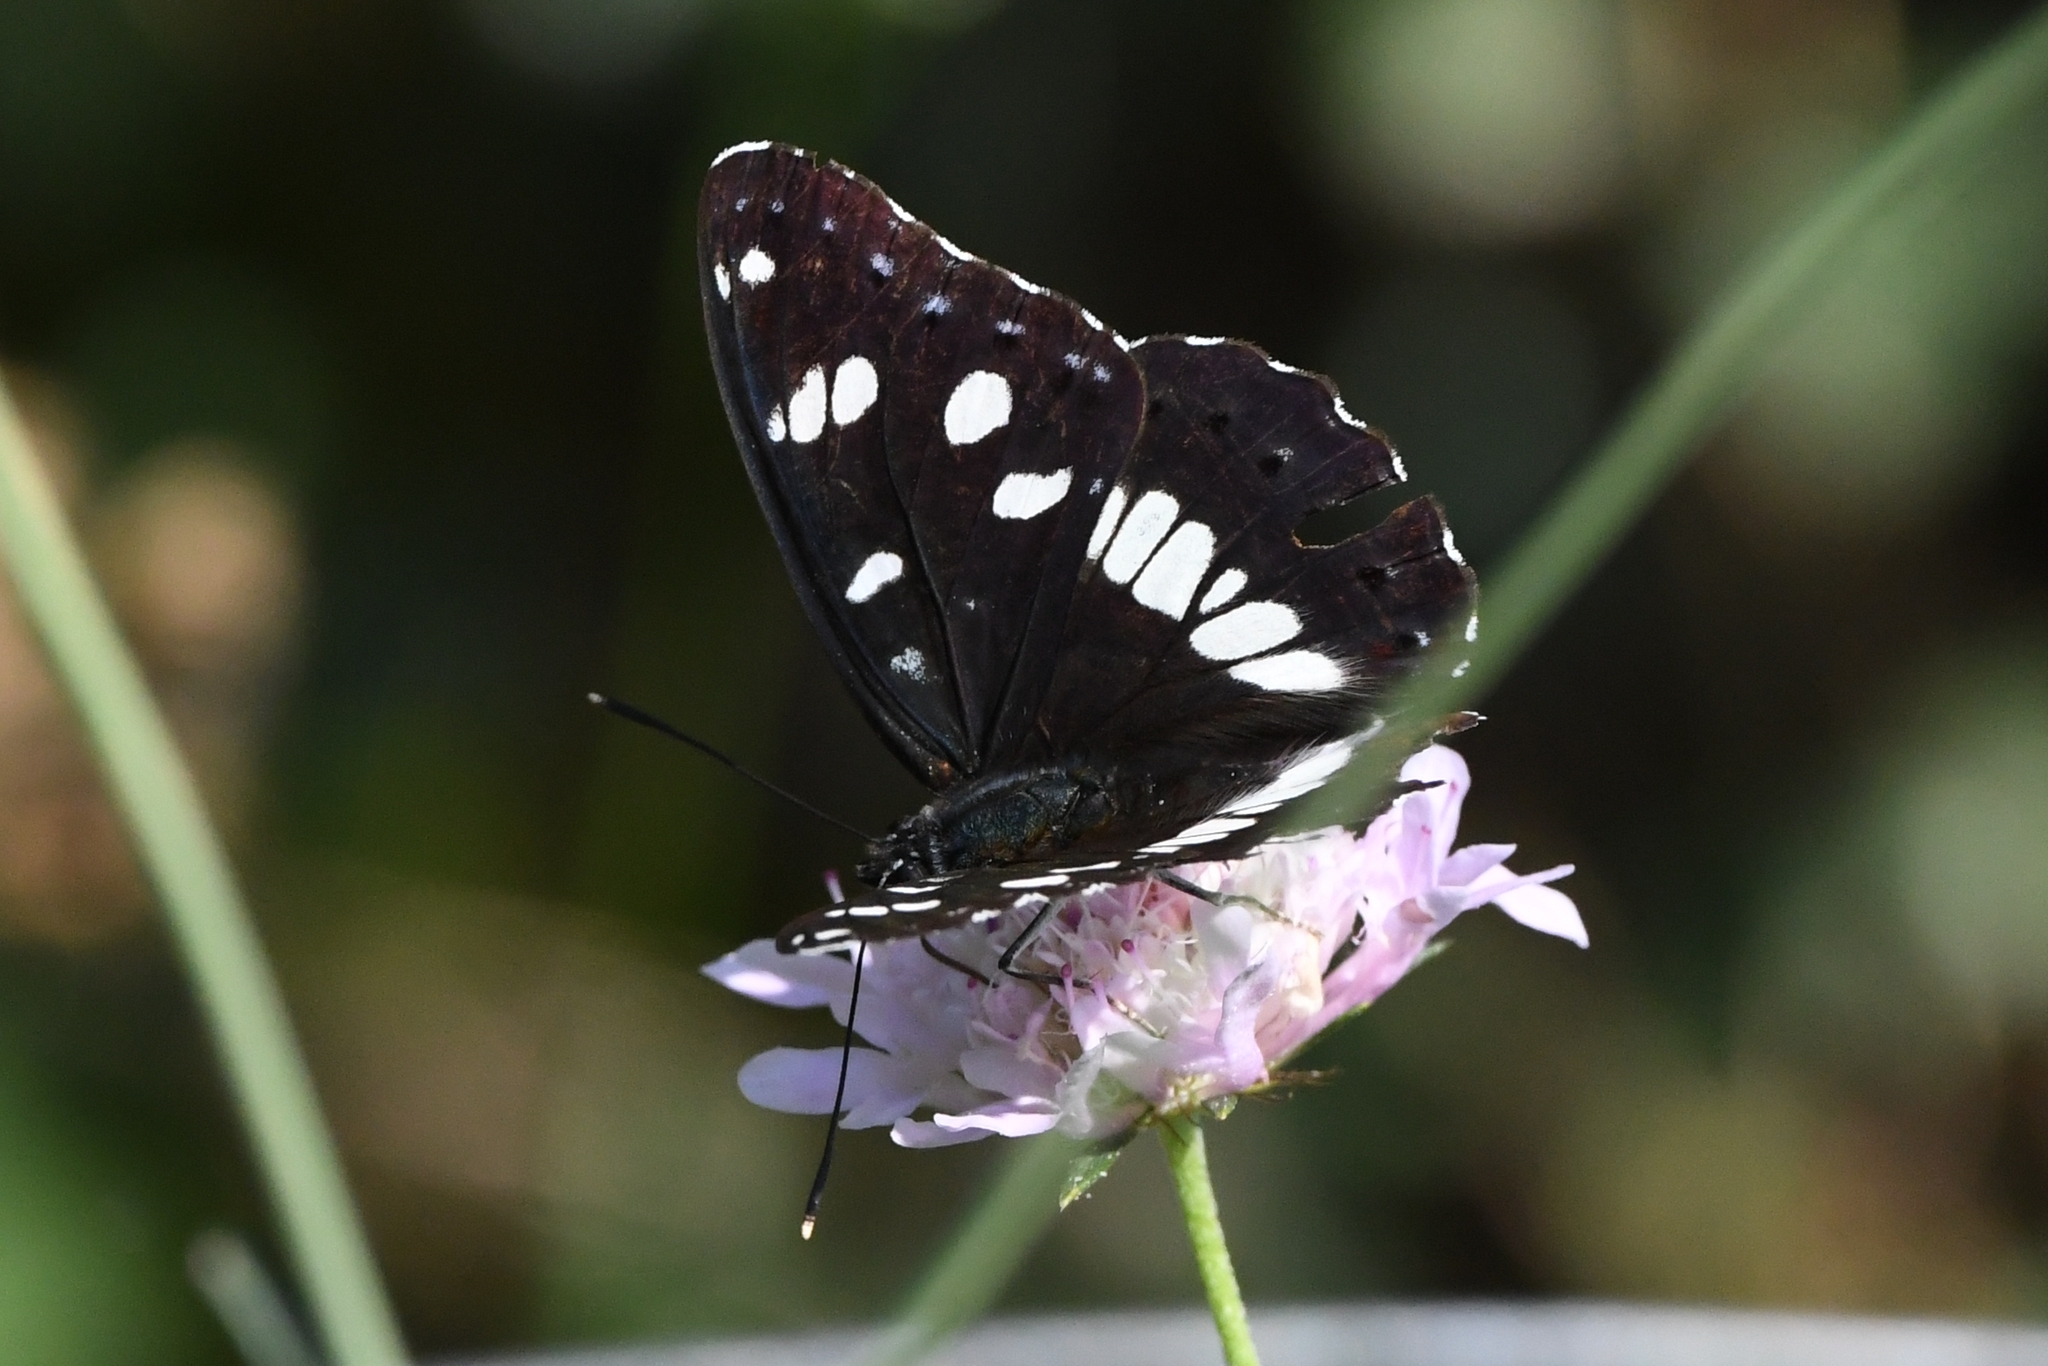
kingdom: Animalia
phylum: Arthropoda
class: Insecta
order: Lepidoptera
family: Nymphalidae
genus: Limenitis
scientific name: Limenitis reducta
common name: Southern white admiral
